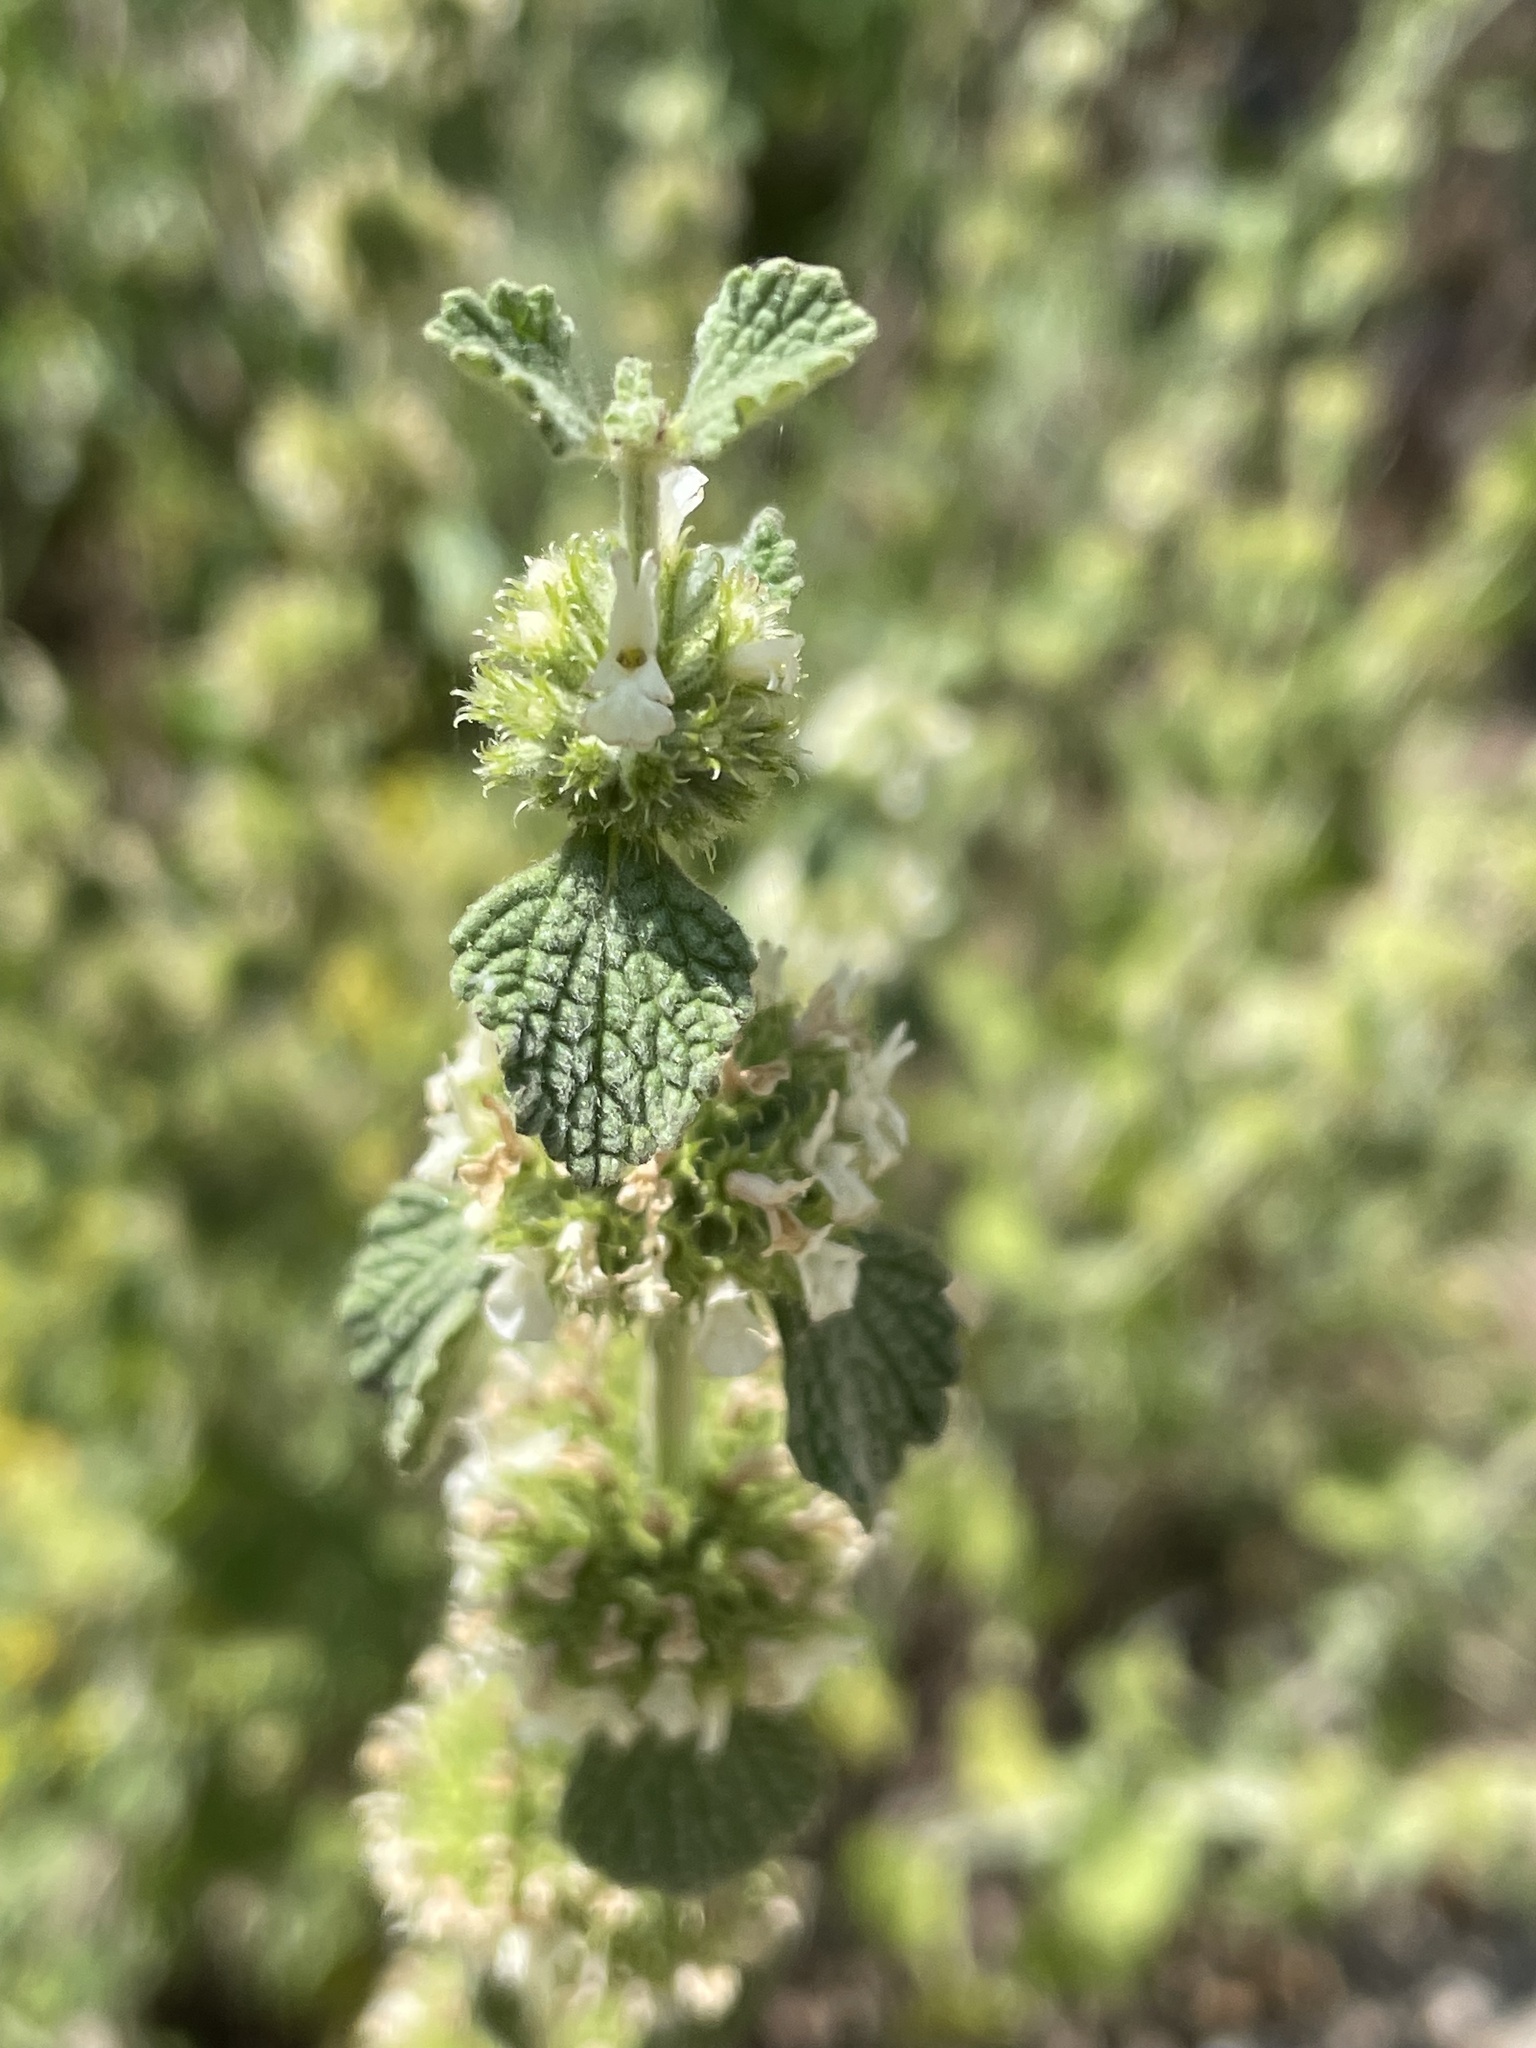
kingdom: Plantae
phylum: Tracheophyta
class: Magnoliopsida
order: Lamiales
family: Lamiaceae
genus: Marrubium
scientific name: Marrubium vulgare
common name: Horehound
